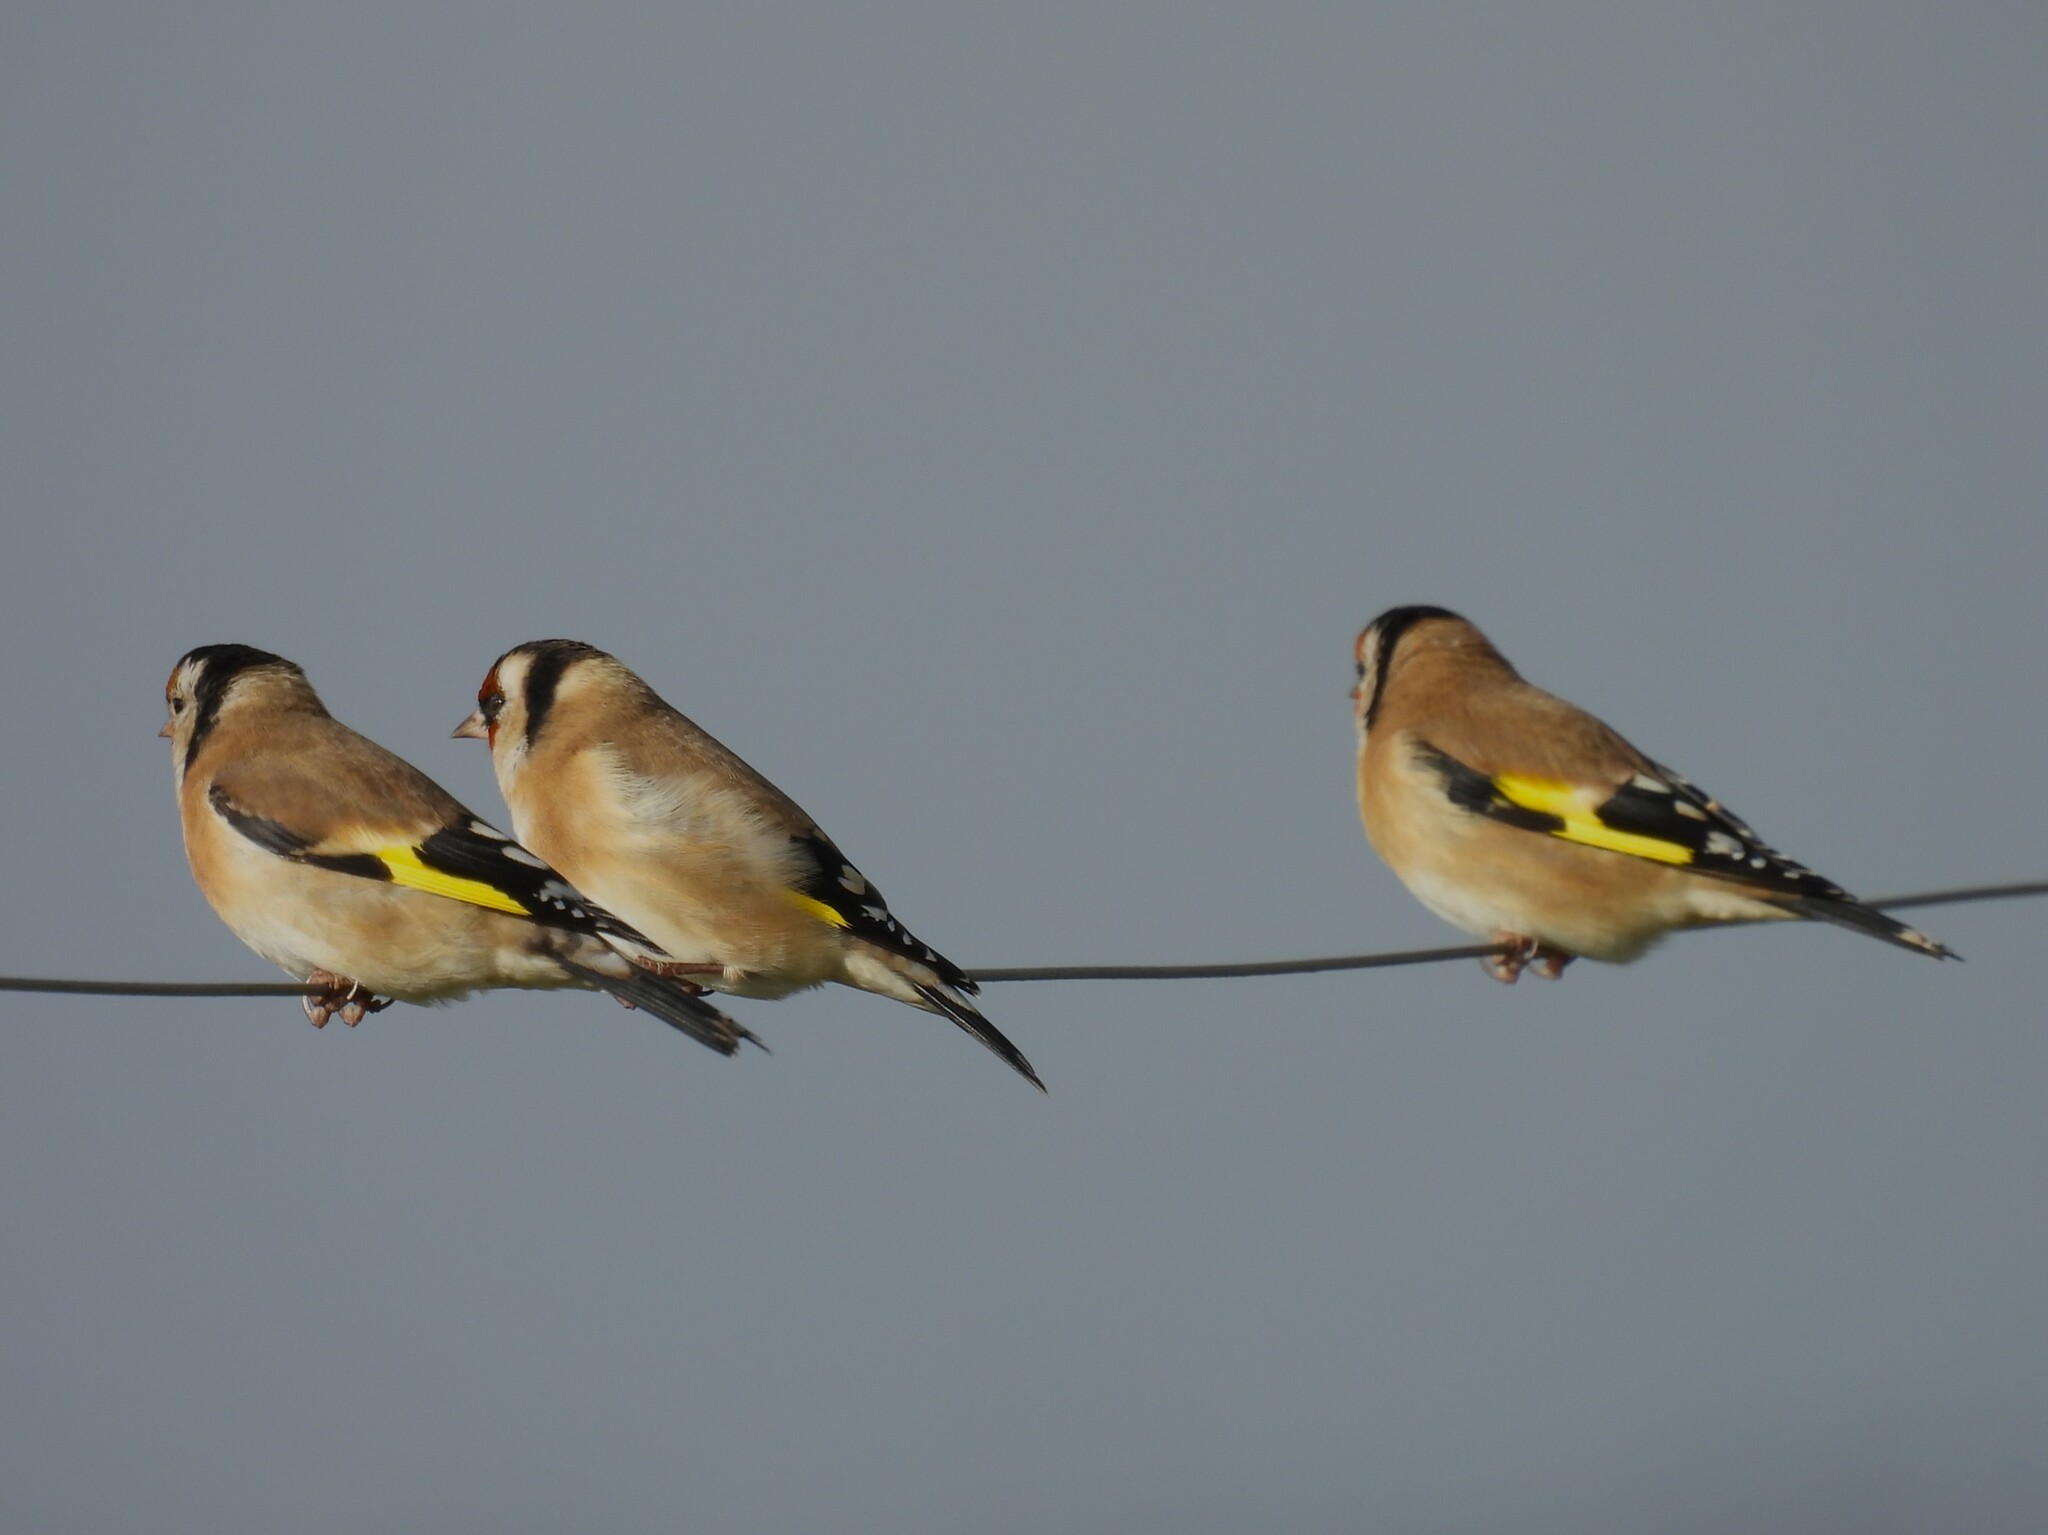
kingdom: Animalia
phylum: Chordata
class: Aves
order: Passeriformes
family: Fringillidae
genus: Carduelis
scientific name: Carduelis carduelis
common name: European goldfinch
